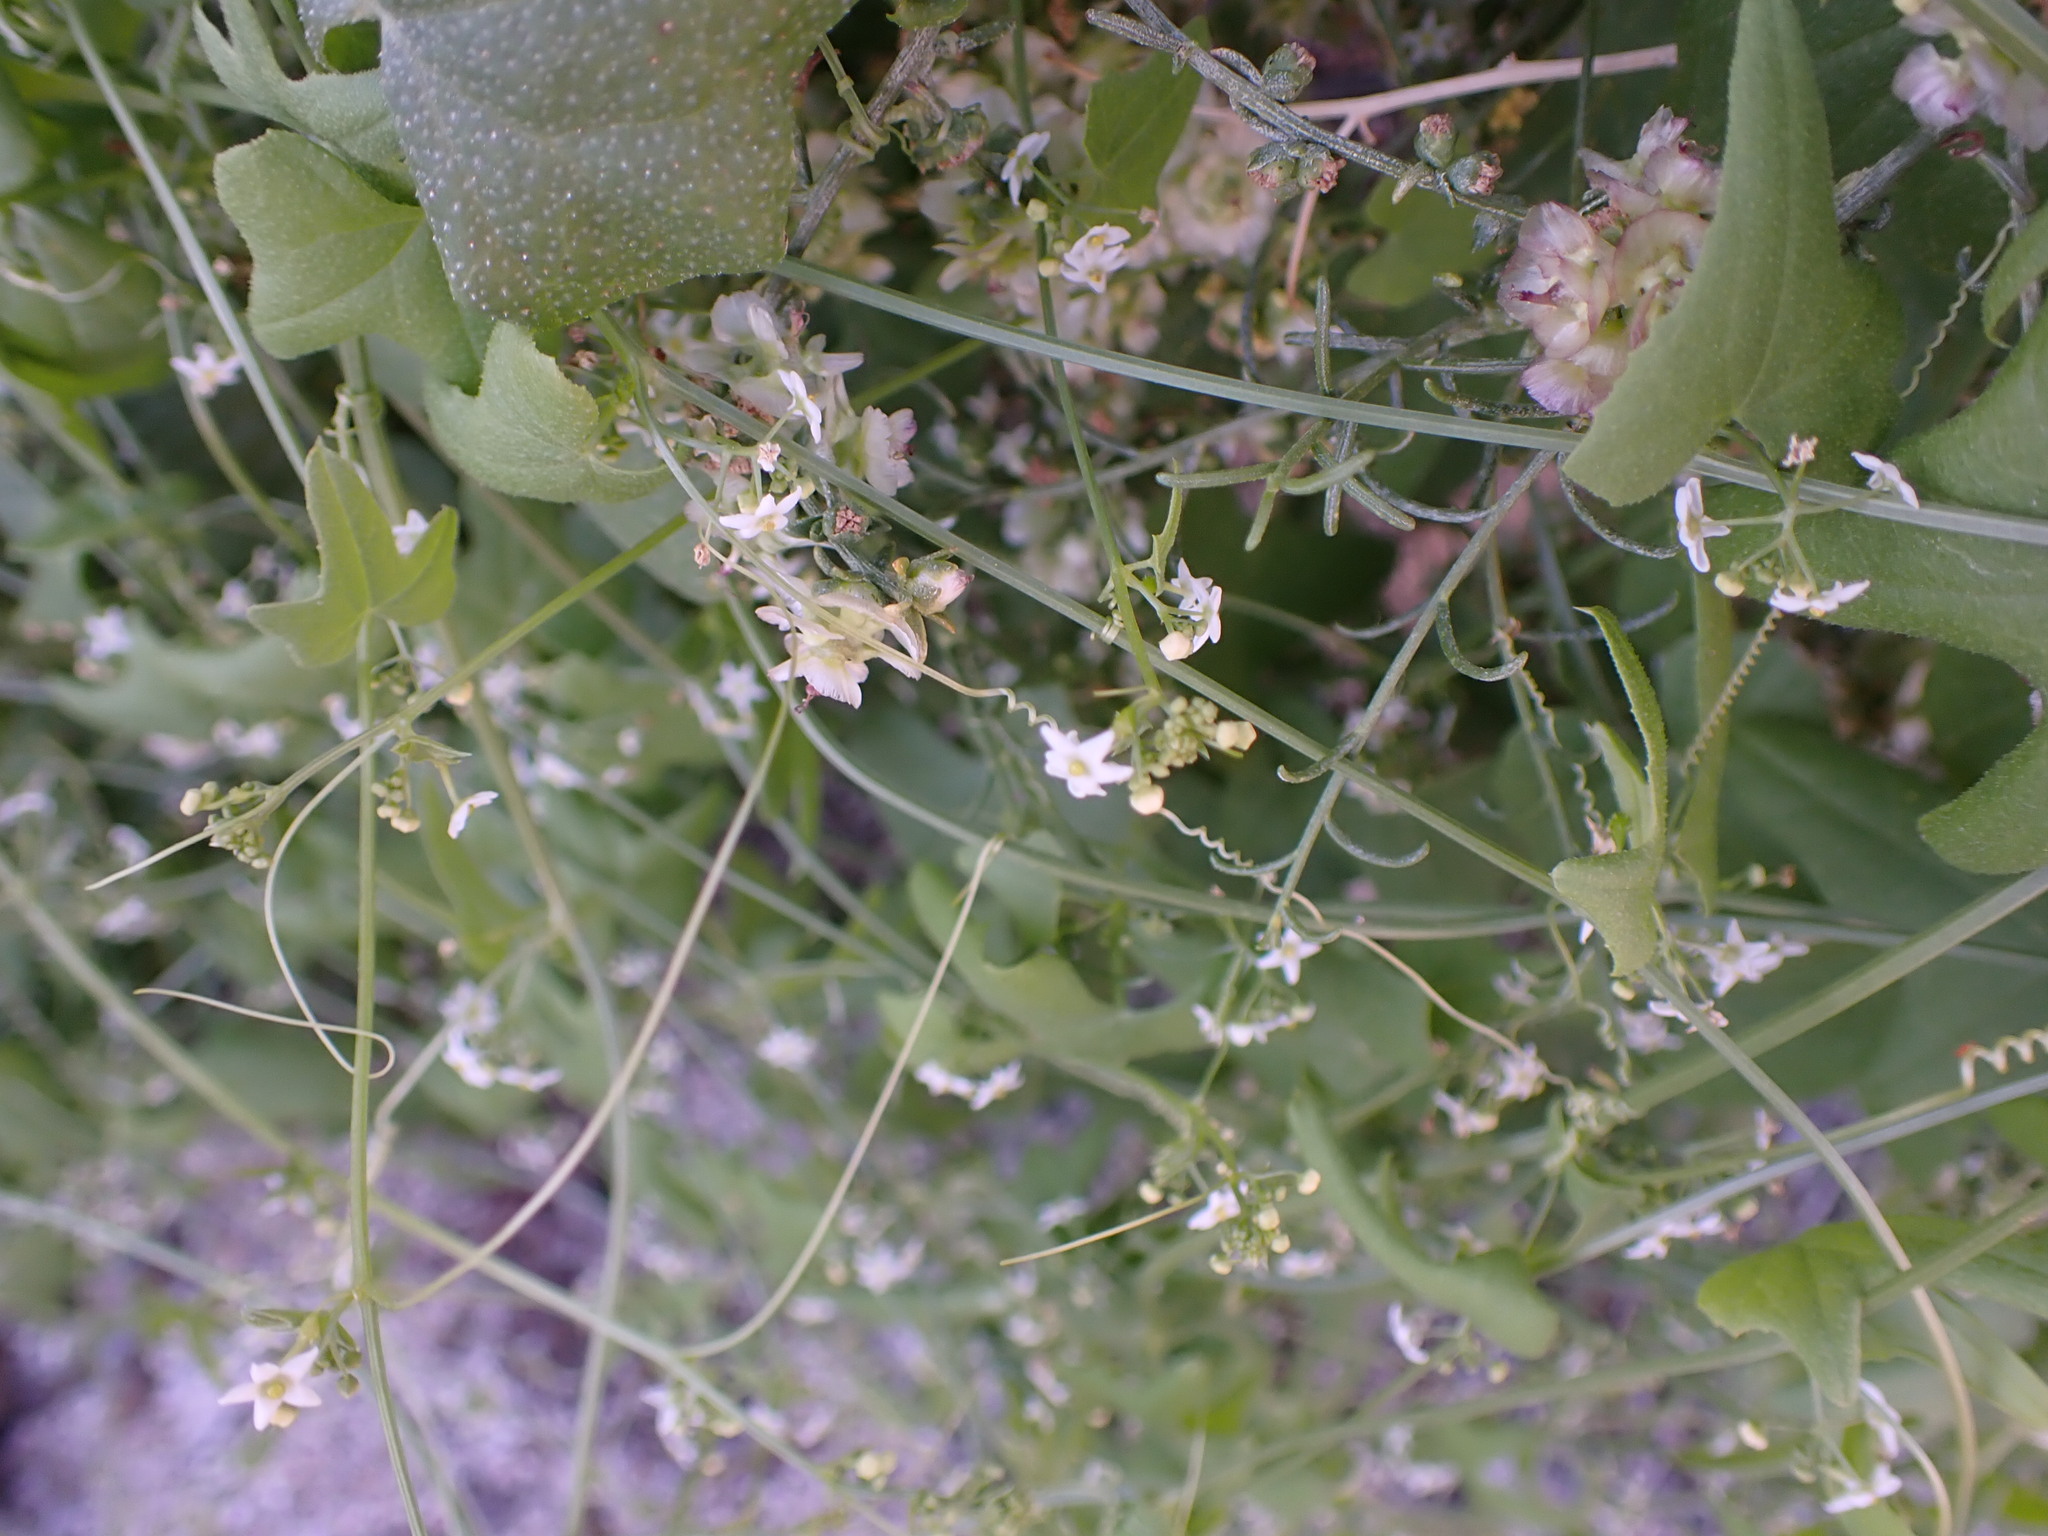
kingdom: Plantae
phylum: Tracheophyta
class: Magnoliopsida
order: Cucurbitales
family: Cucurbitaceae
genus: Echinopepon
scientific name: Echinopepon bigelovii
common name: Desert starvine
